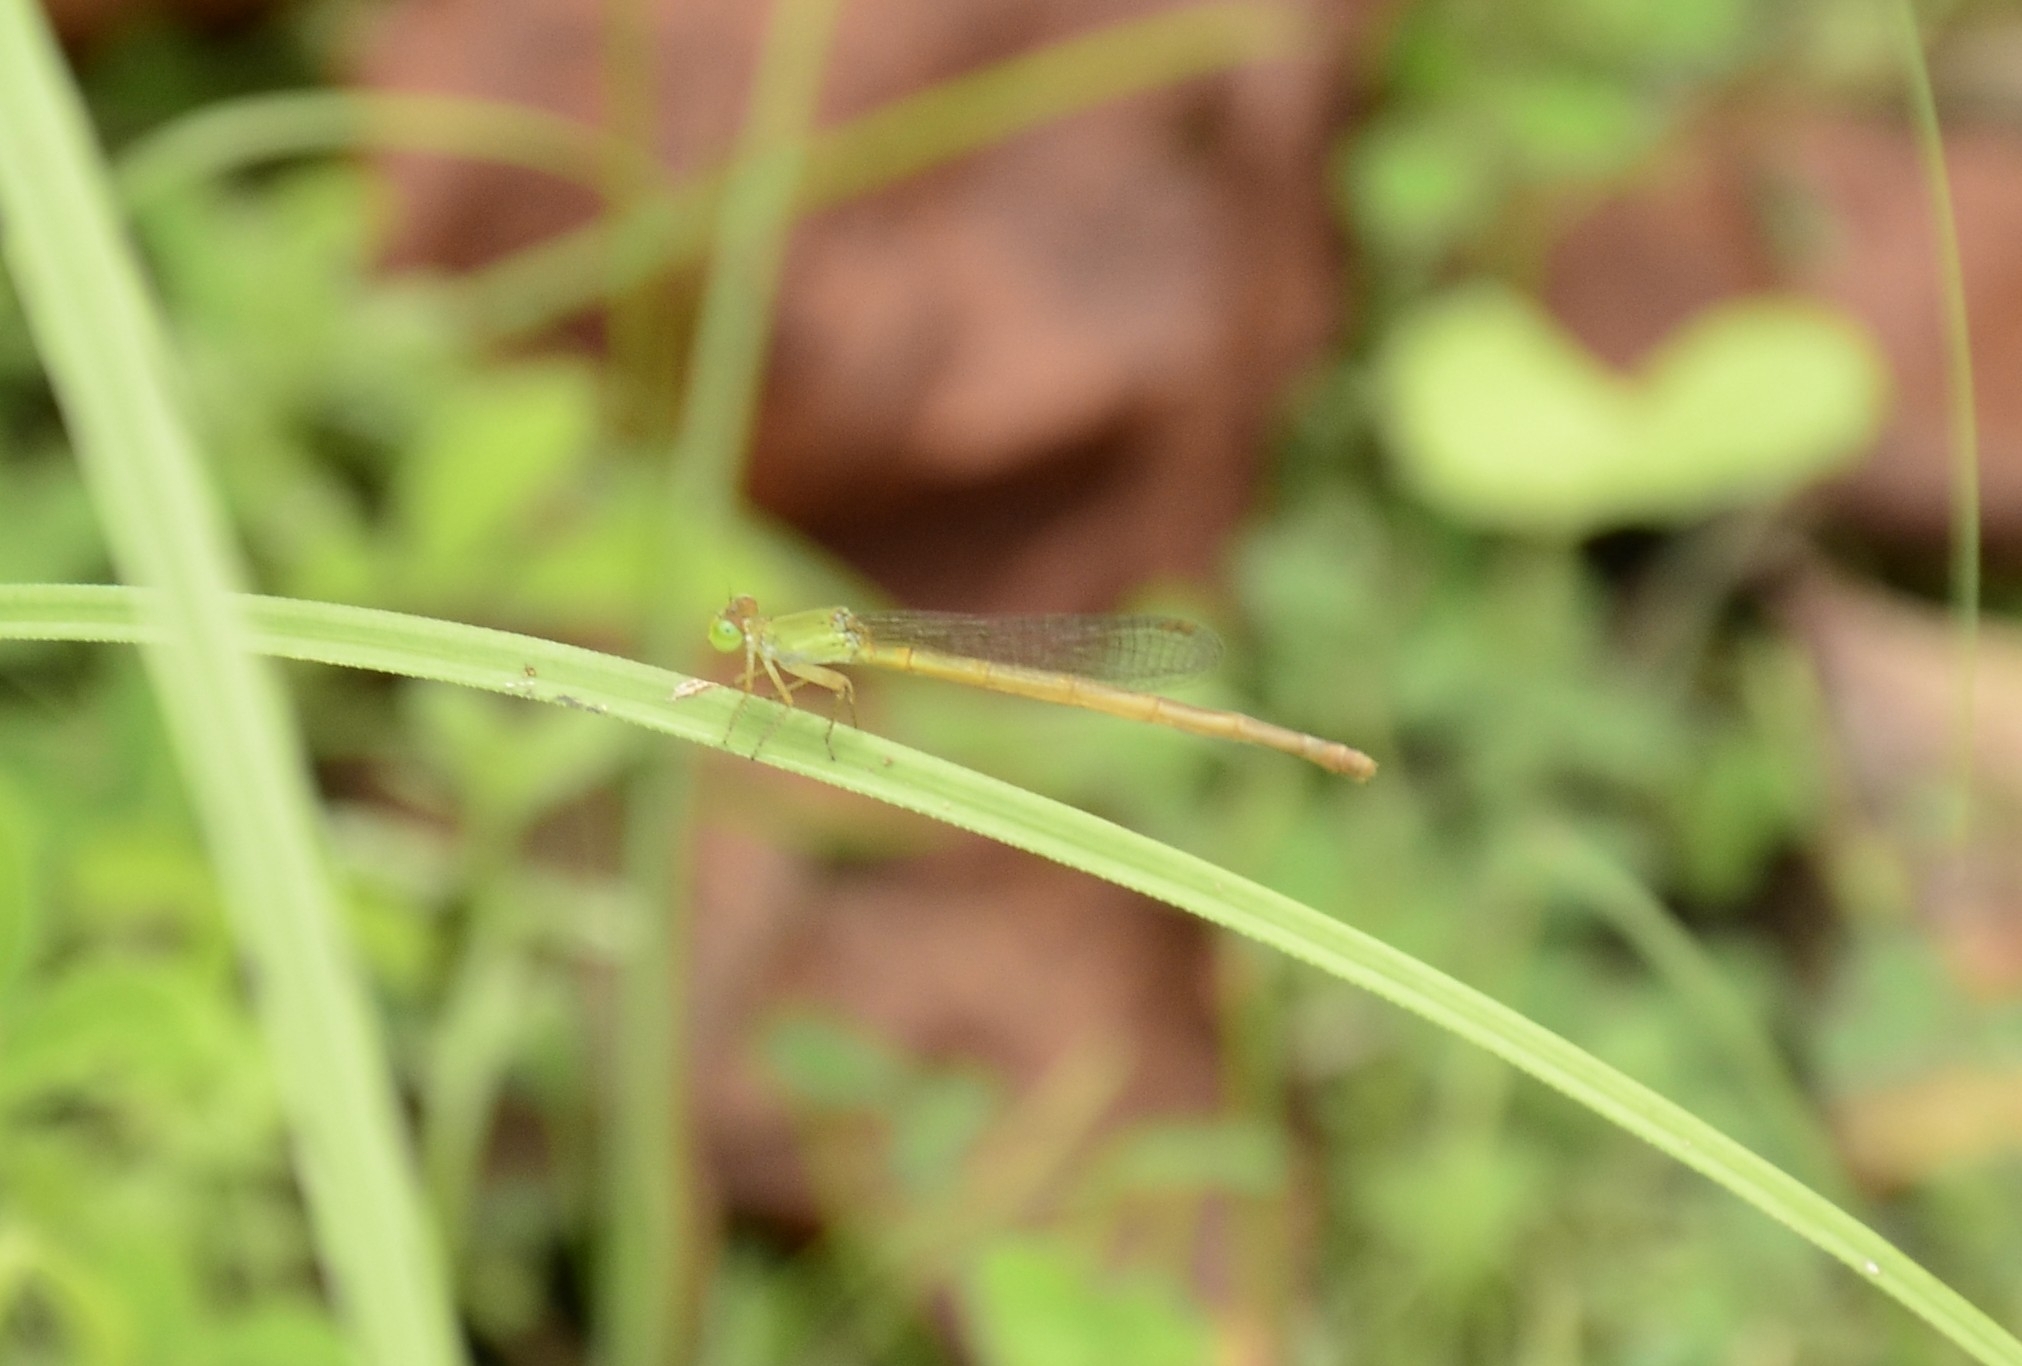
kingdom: Animalia
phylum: Arthropoda
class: Insecta
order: Odonata
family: Coenagrionidae
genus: Ceriagrion
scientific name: Ceriagrion coromandelianum
